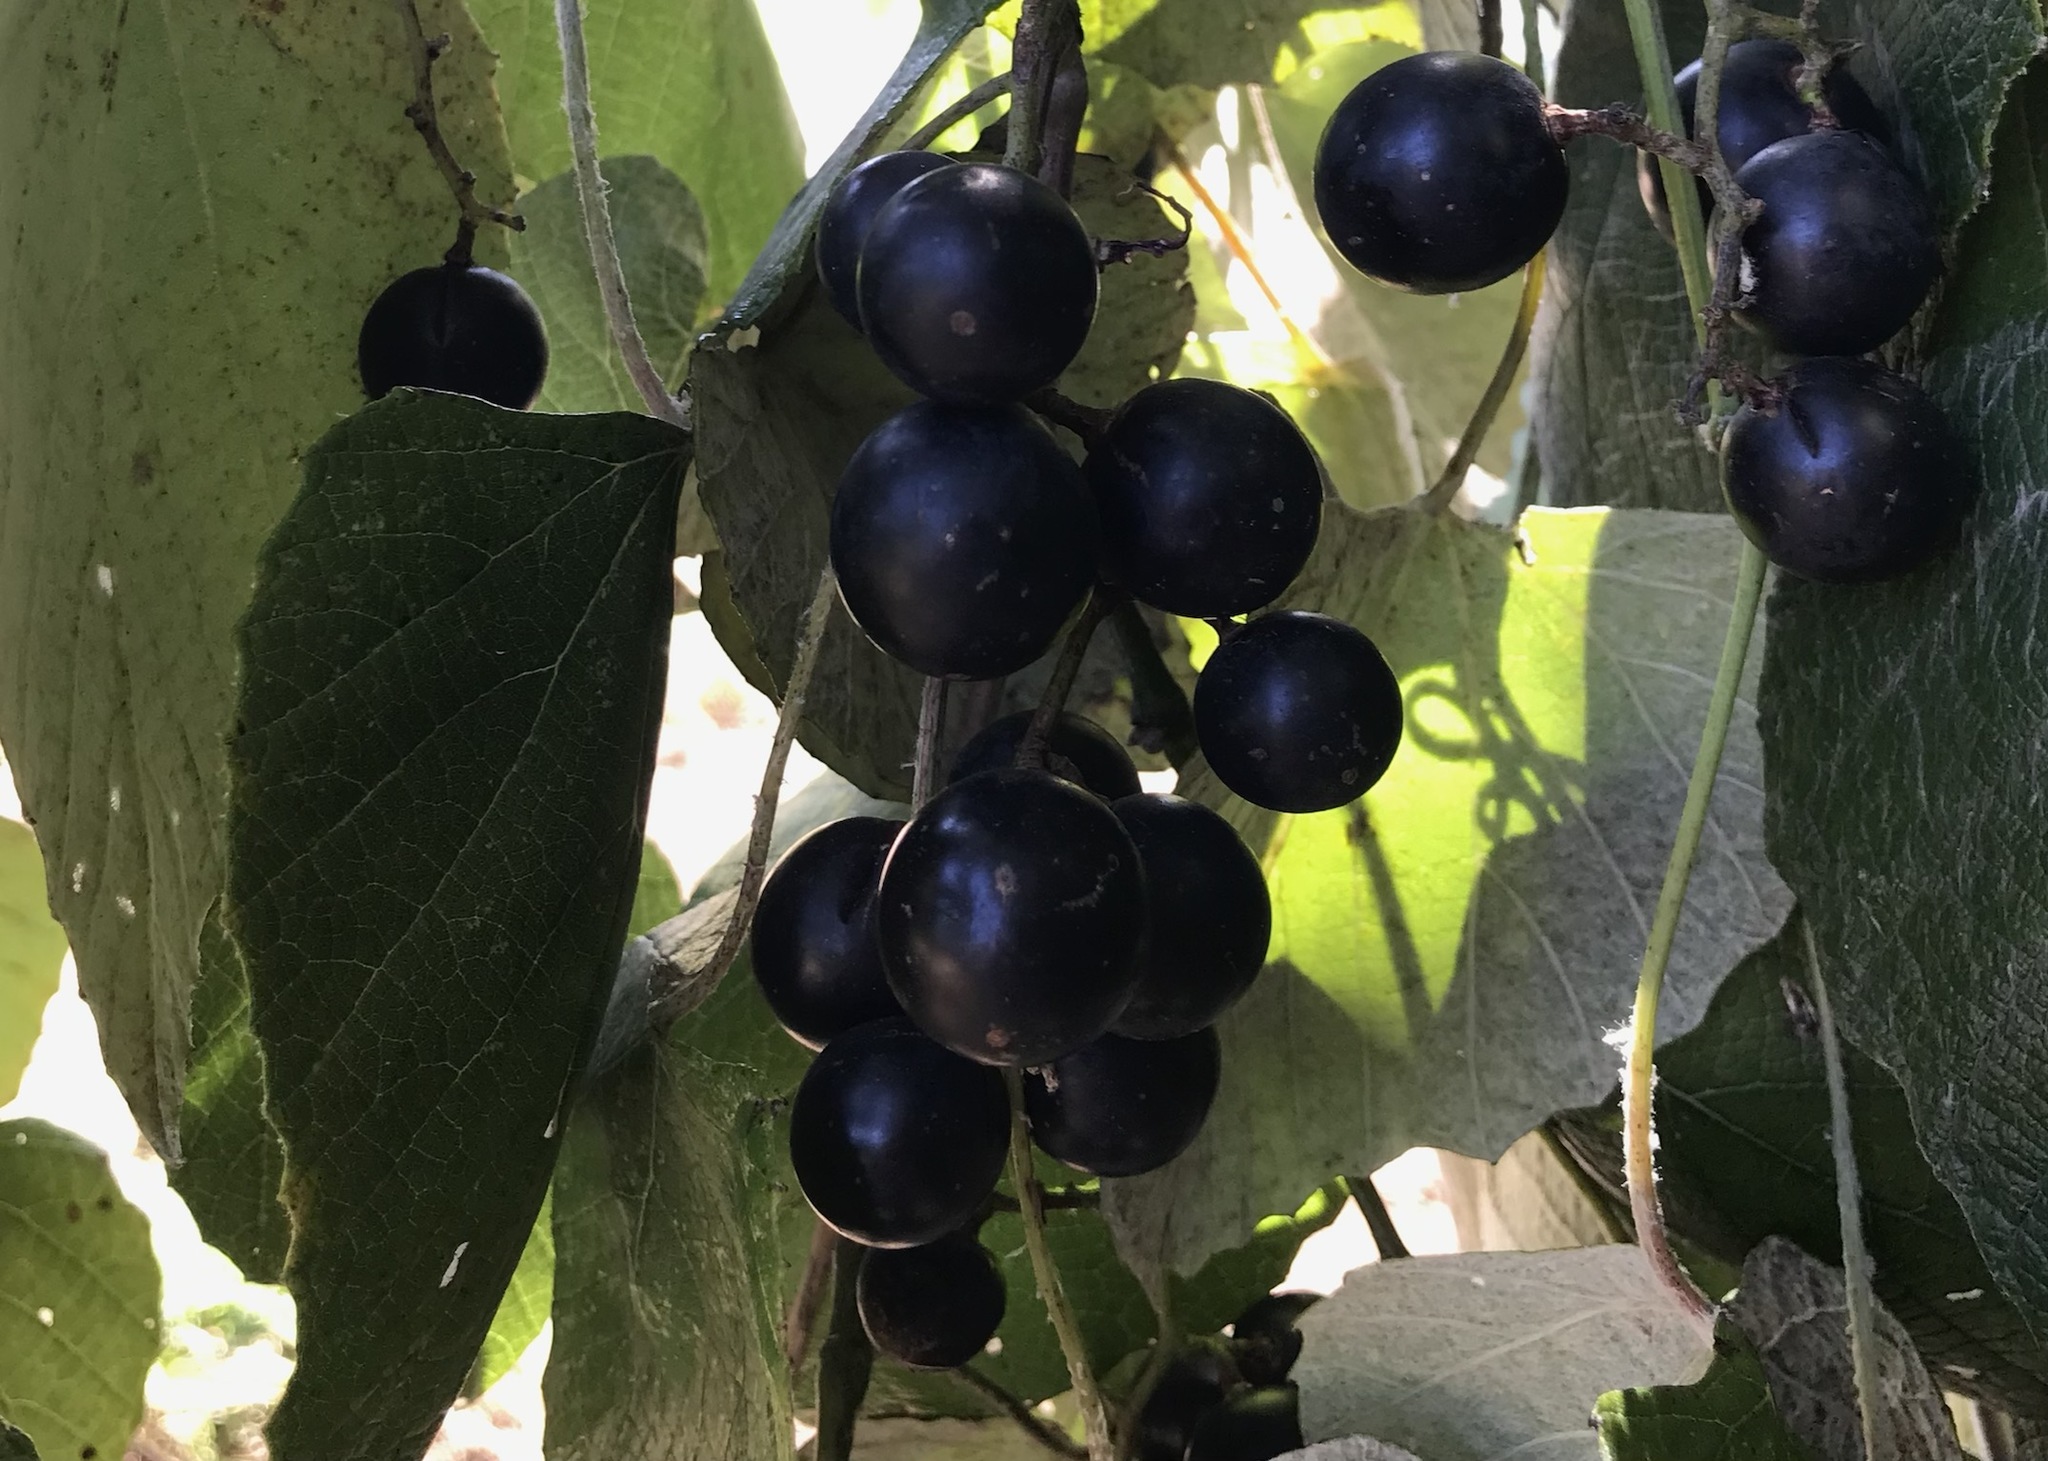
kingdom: Plantae
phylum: Tracheophyta
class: Magnoliopsida
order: Vitales
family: Vitaceae
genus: Vitis
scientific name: Vitis mustangensis
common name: Mustang grape
